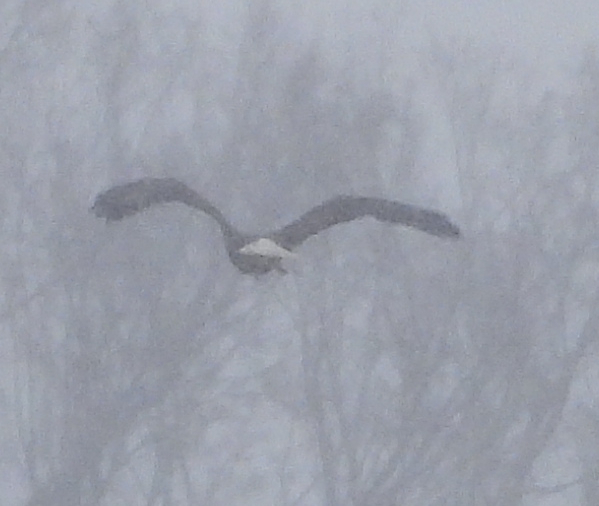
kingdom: Animalia
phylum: Chordata
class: Aves
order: Accipitriformes
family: Accipitridae
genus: Haliaeetus
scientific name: Haliaeetus leucocephalus
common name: Bald eagle
